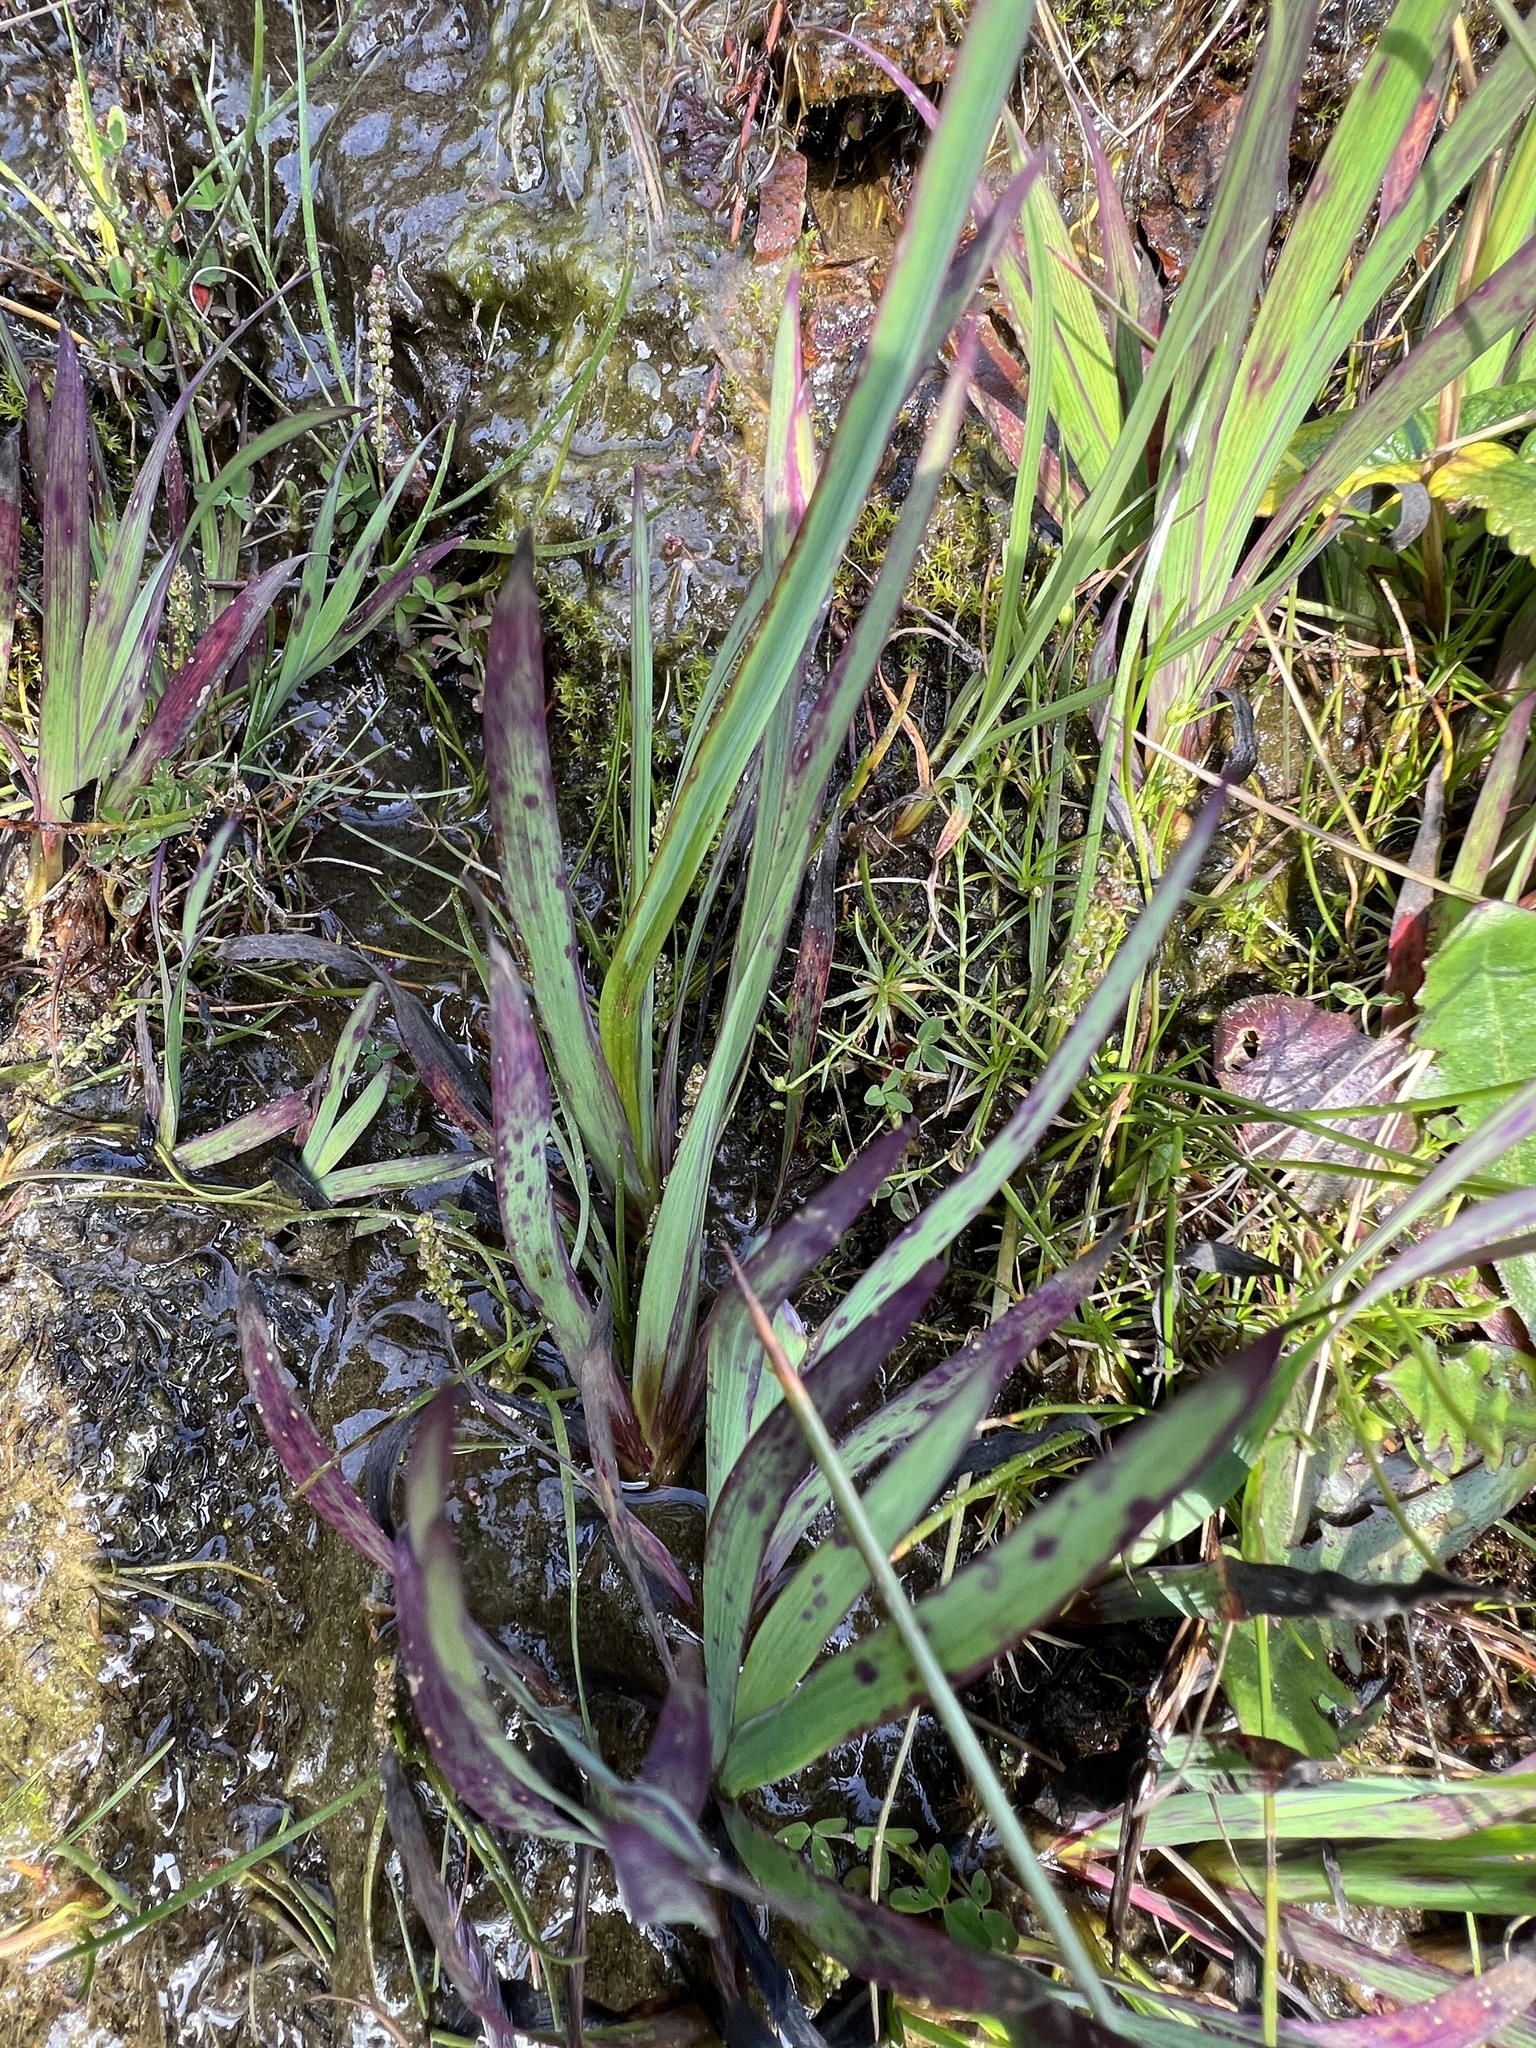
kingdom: Plantae
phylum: Tracheophyta
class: Liliopsida
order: Asparagales
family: Iridaceae
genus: Sisyrinchium
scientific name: Sisyrinchium californicum
